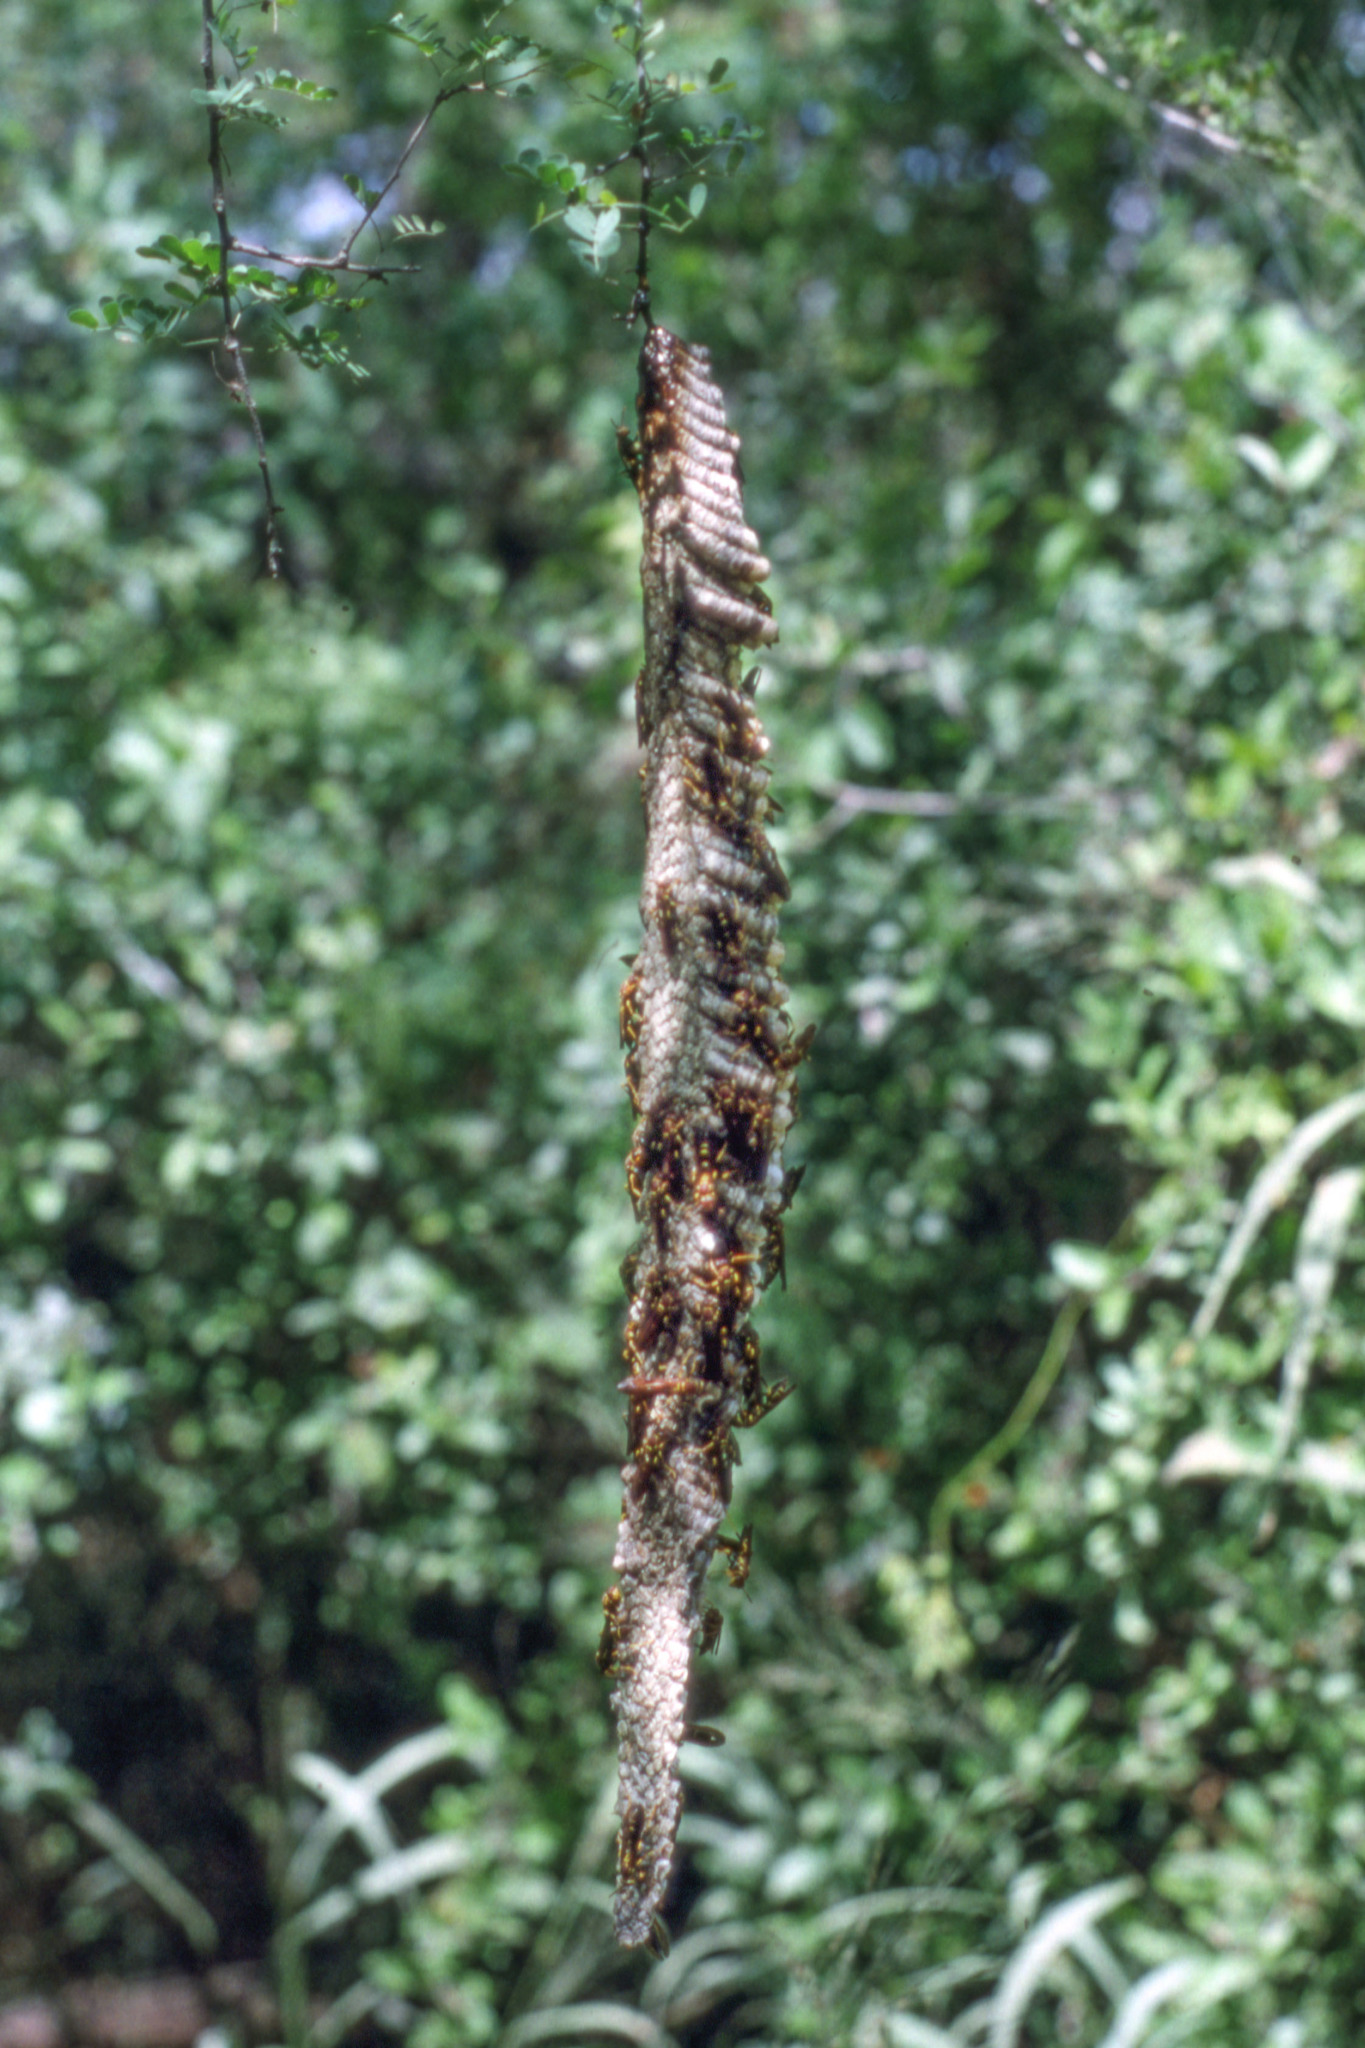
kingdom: Animalia
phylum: Arthropoda
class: Insecta
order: Hymenoptera
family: Eumenidae
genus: Polistes
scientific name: Polistes instabilis
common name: Unstable paper wasp
